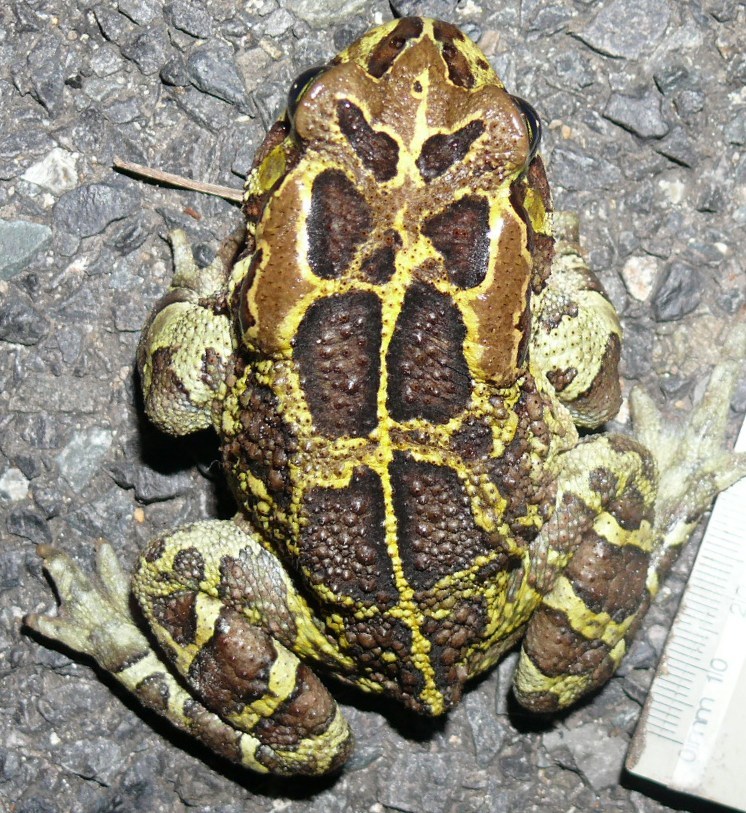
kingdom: Animalia
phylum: Chordata
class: Amphibia
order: Anura
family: Bufonidae
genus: Sclerophrys
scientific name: Sclerophrys pantherina
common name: Panther toad
